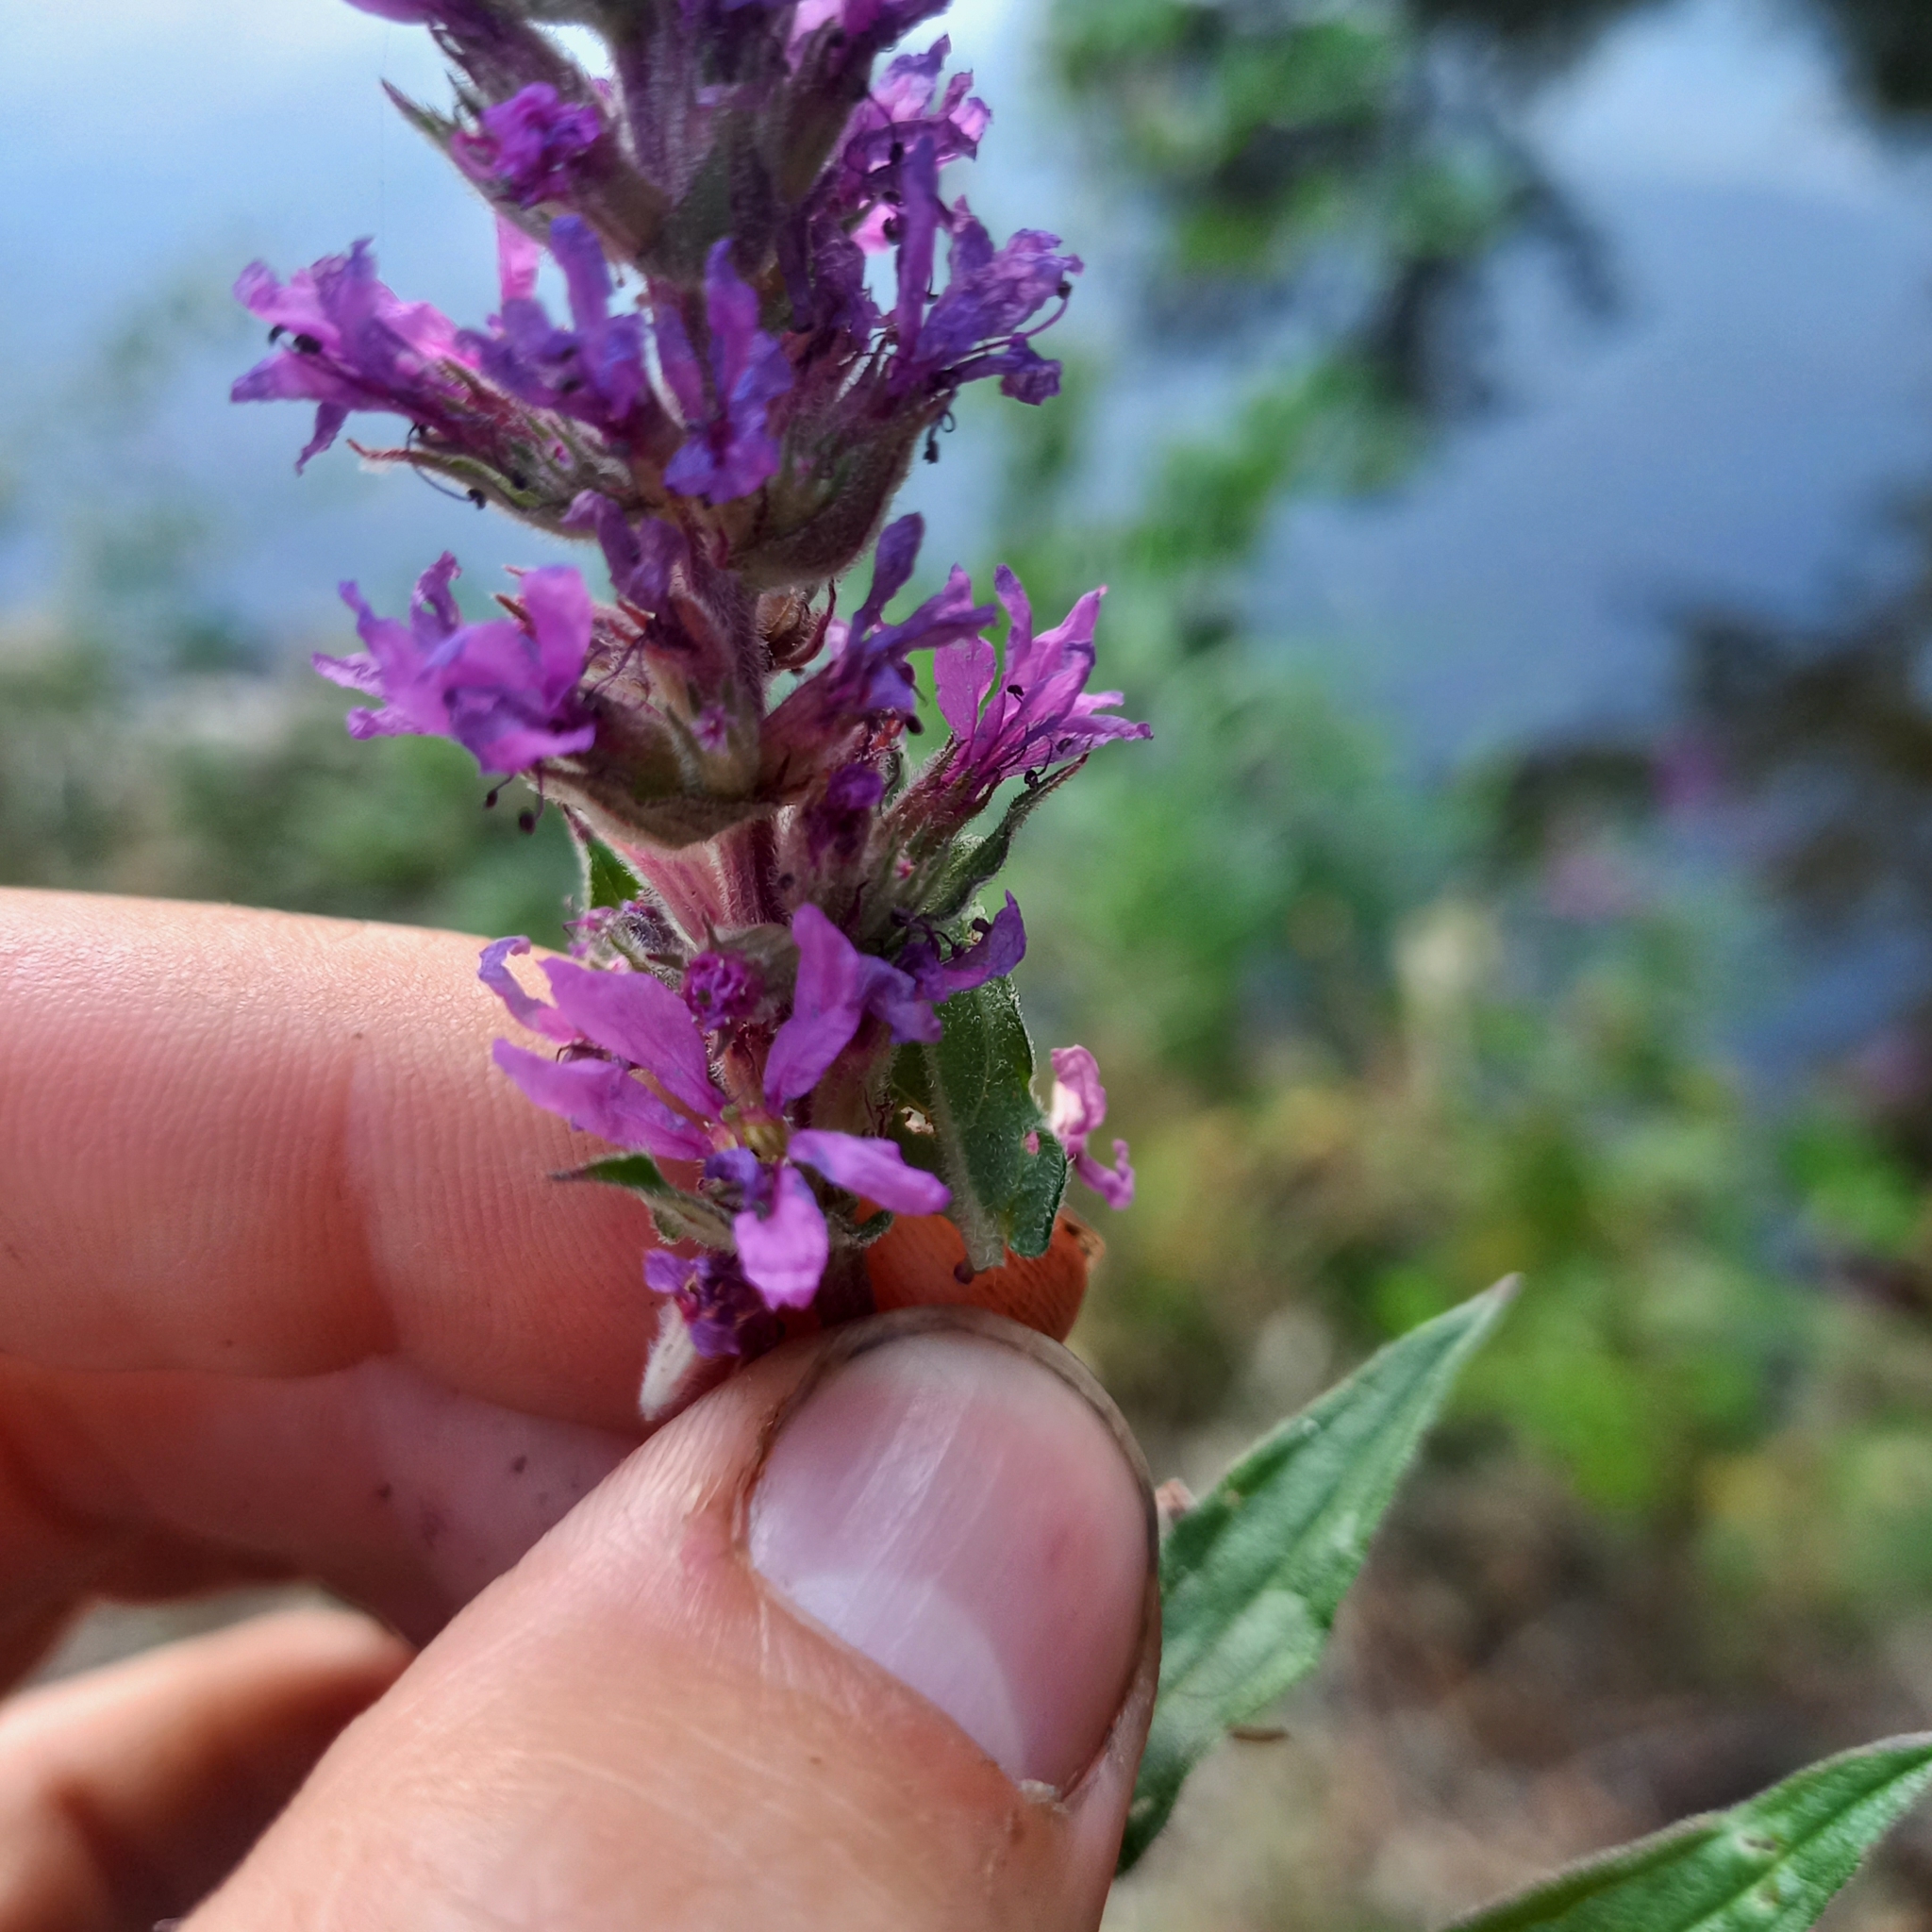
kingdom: Plantae
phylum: Tracheophyta
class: Magnoliopsida
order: Myrtales
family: Lythraceae
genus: Lythrum
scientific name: Lythrum salicaria
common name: Purple loosestrife
